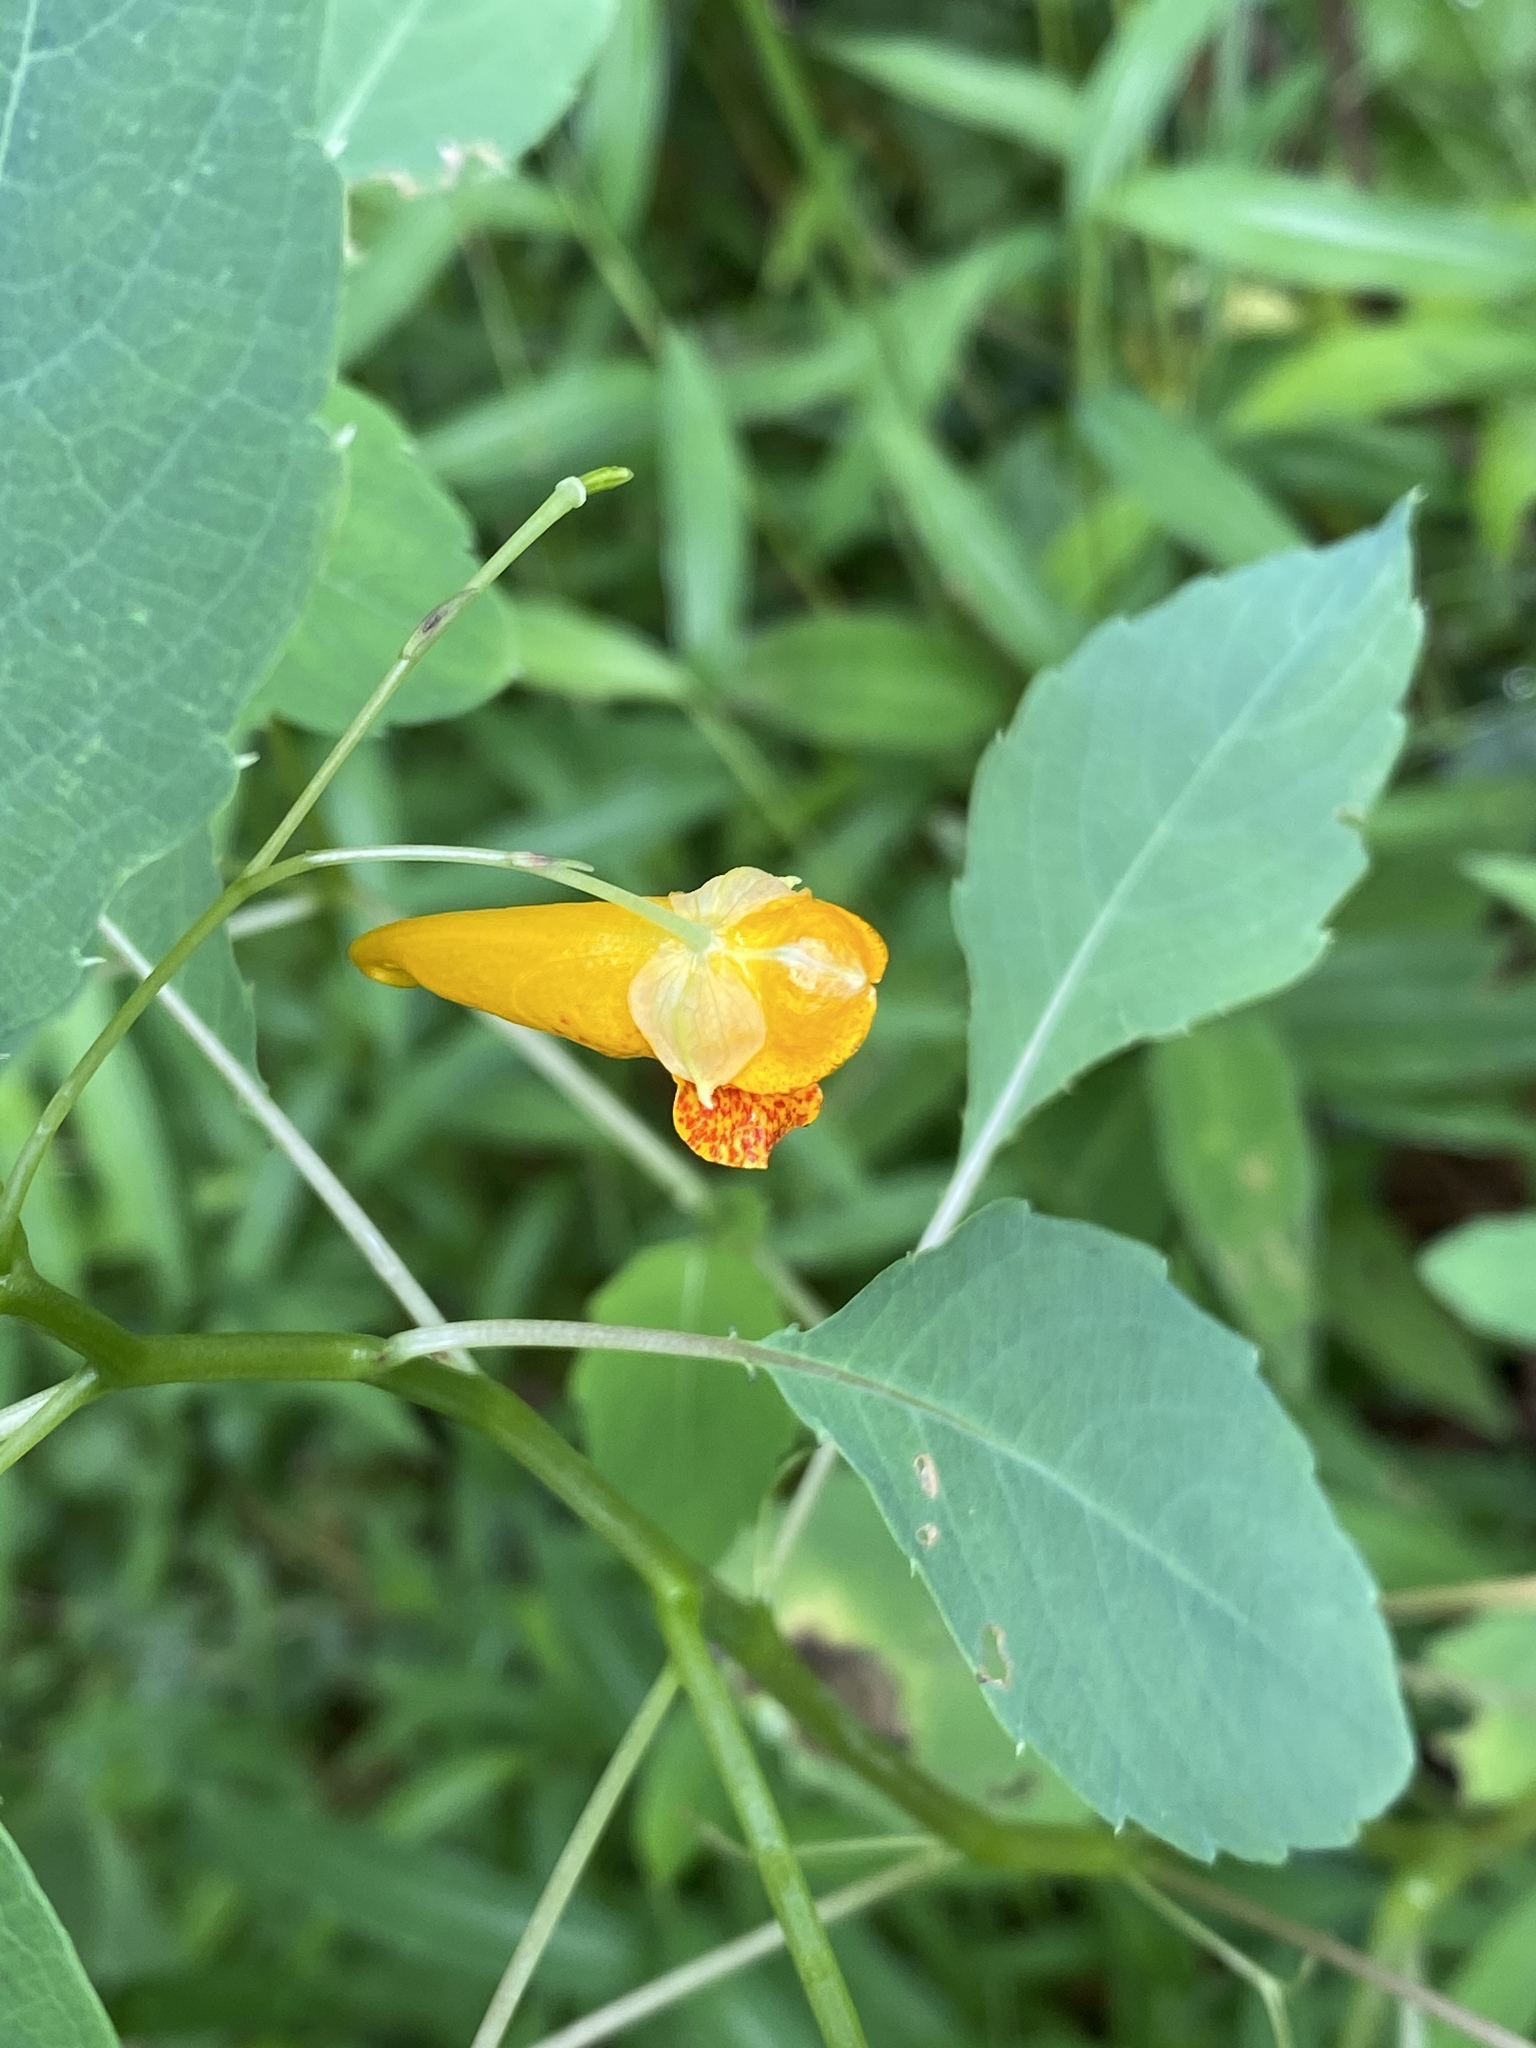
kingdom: Plantae
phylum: Tracheophyta
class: Magnoliopsida
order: Ericales
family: Balsaminaceae
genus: Impatiens
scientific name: Impatiens capensis
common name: Orange balsam
